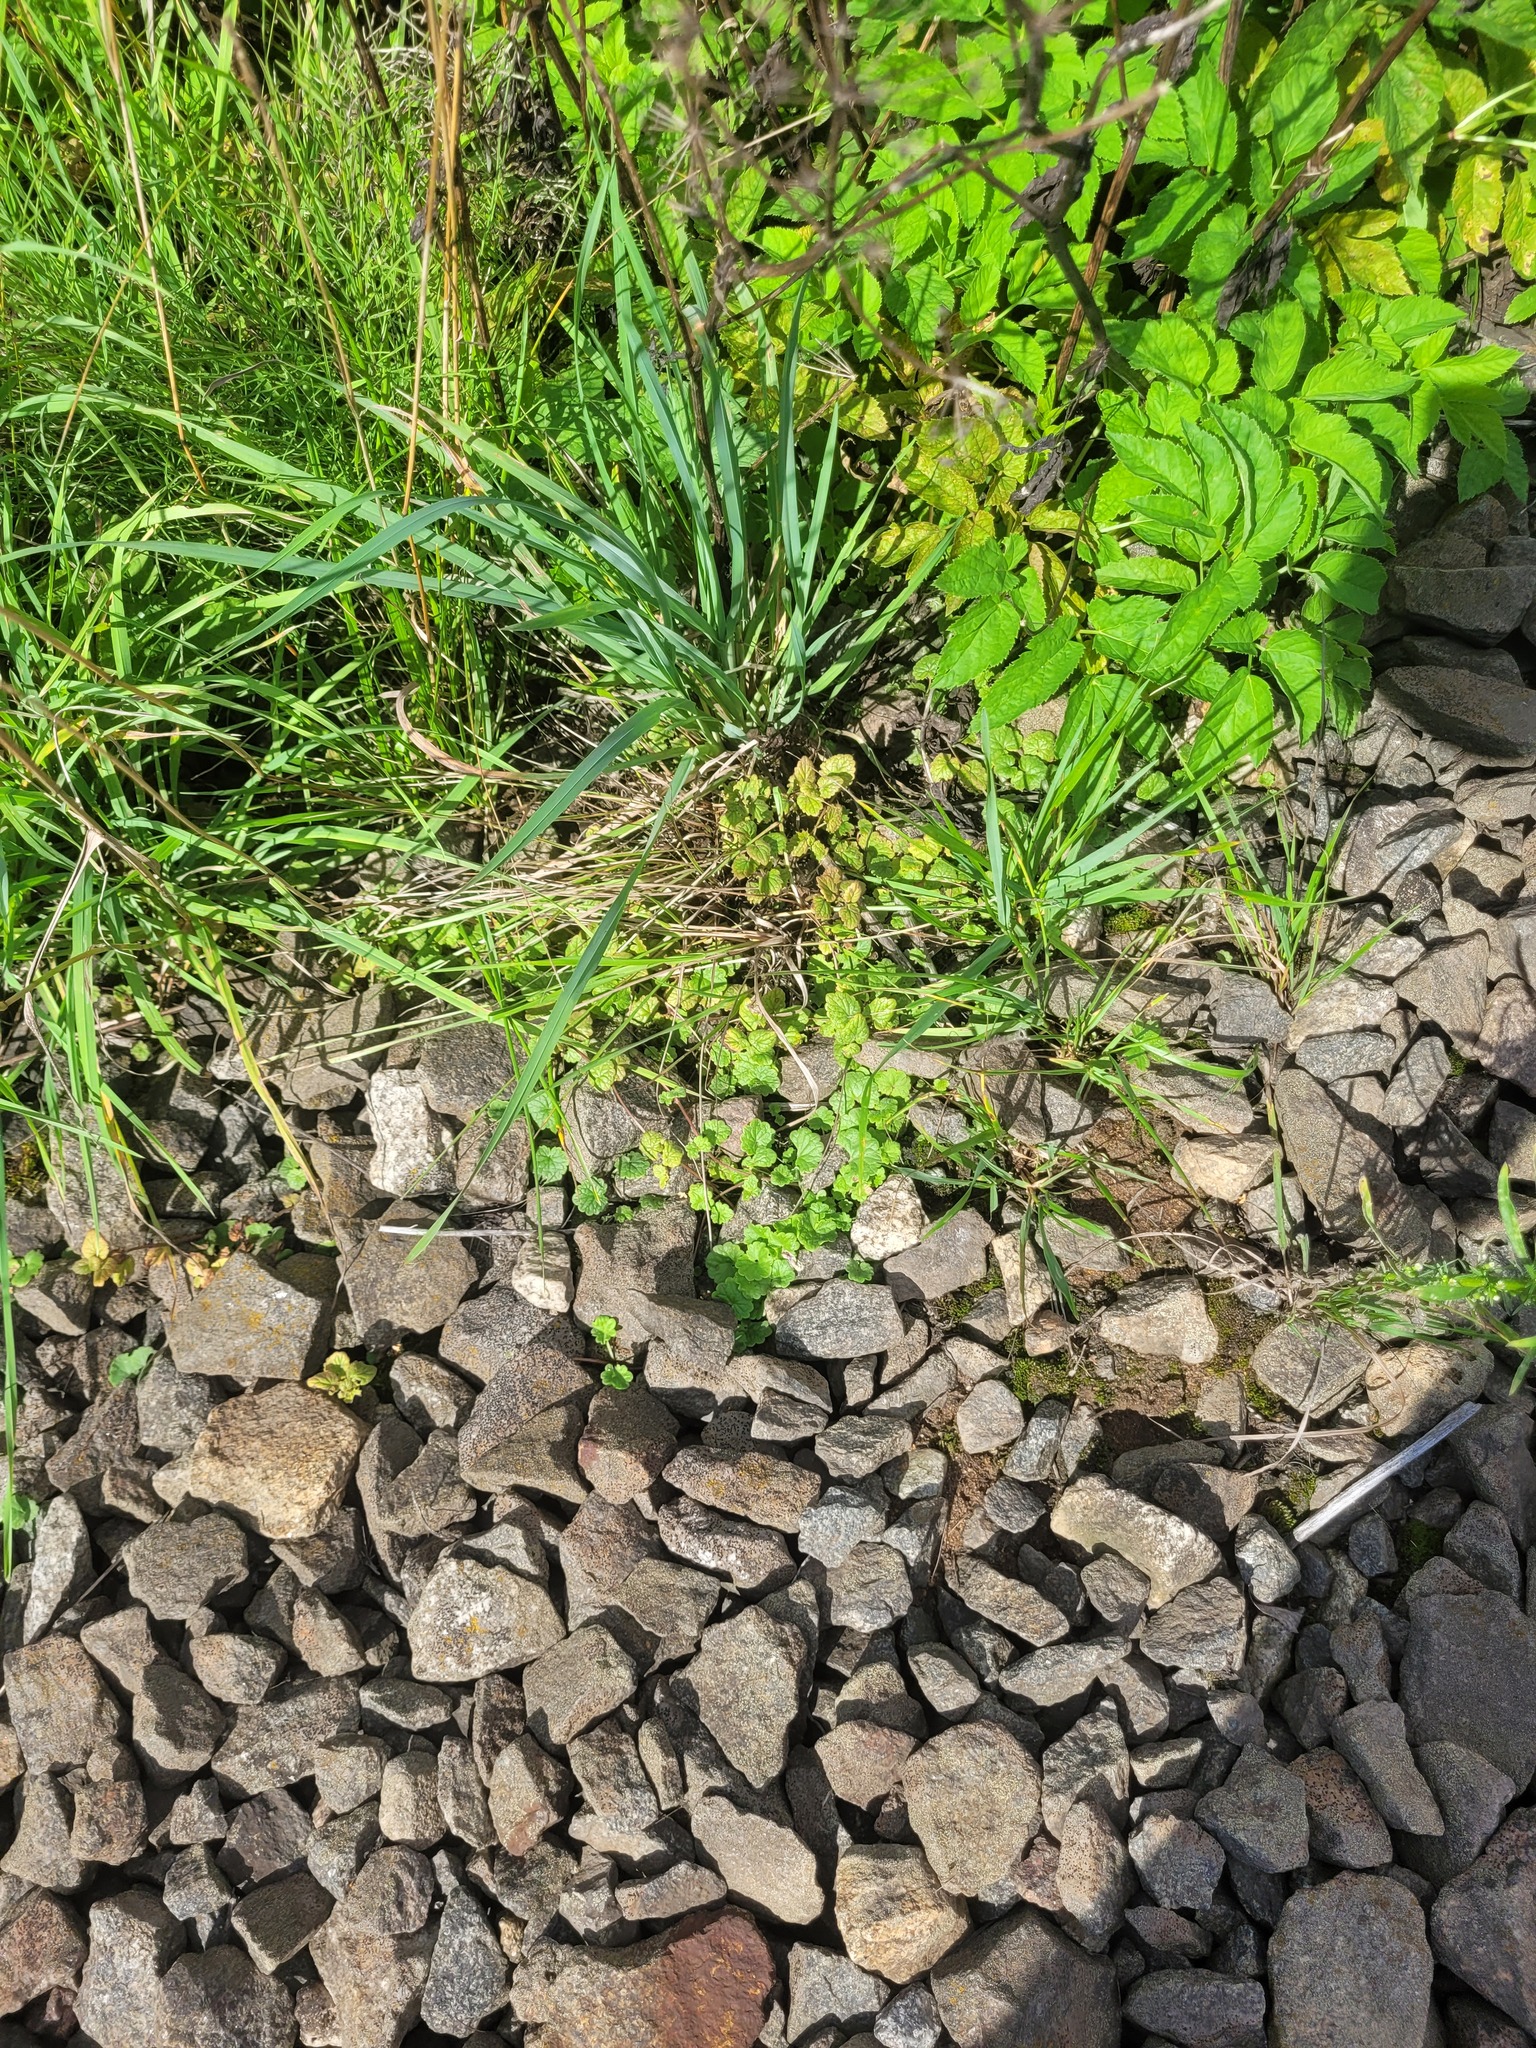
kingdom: Plantae
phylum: Tracheophyta
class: Magnoliopsida
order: Lamiales
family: Lamiaceae
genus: Glechoma
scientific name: Glechoma hederacea
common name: Ground ivy
